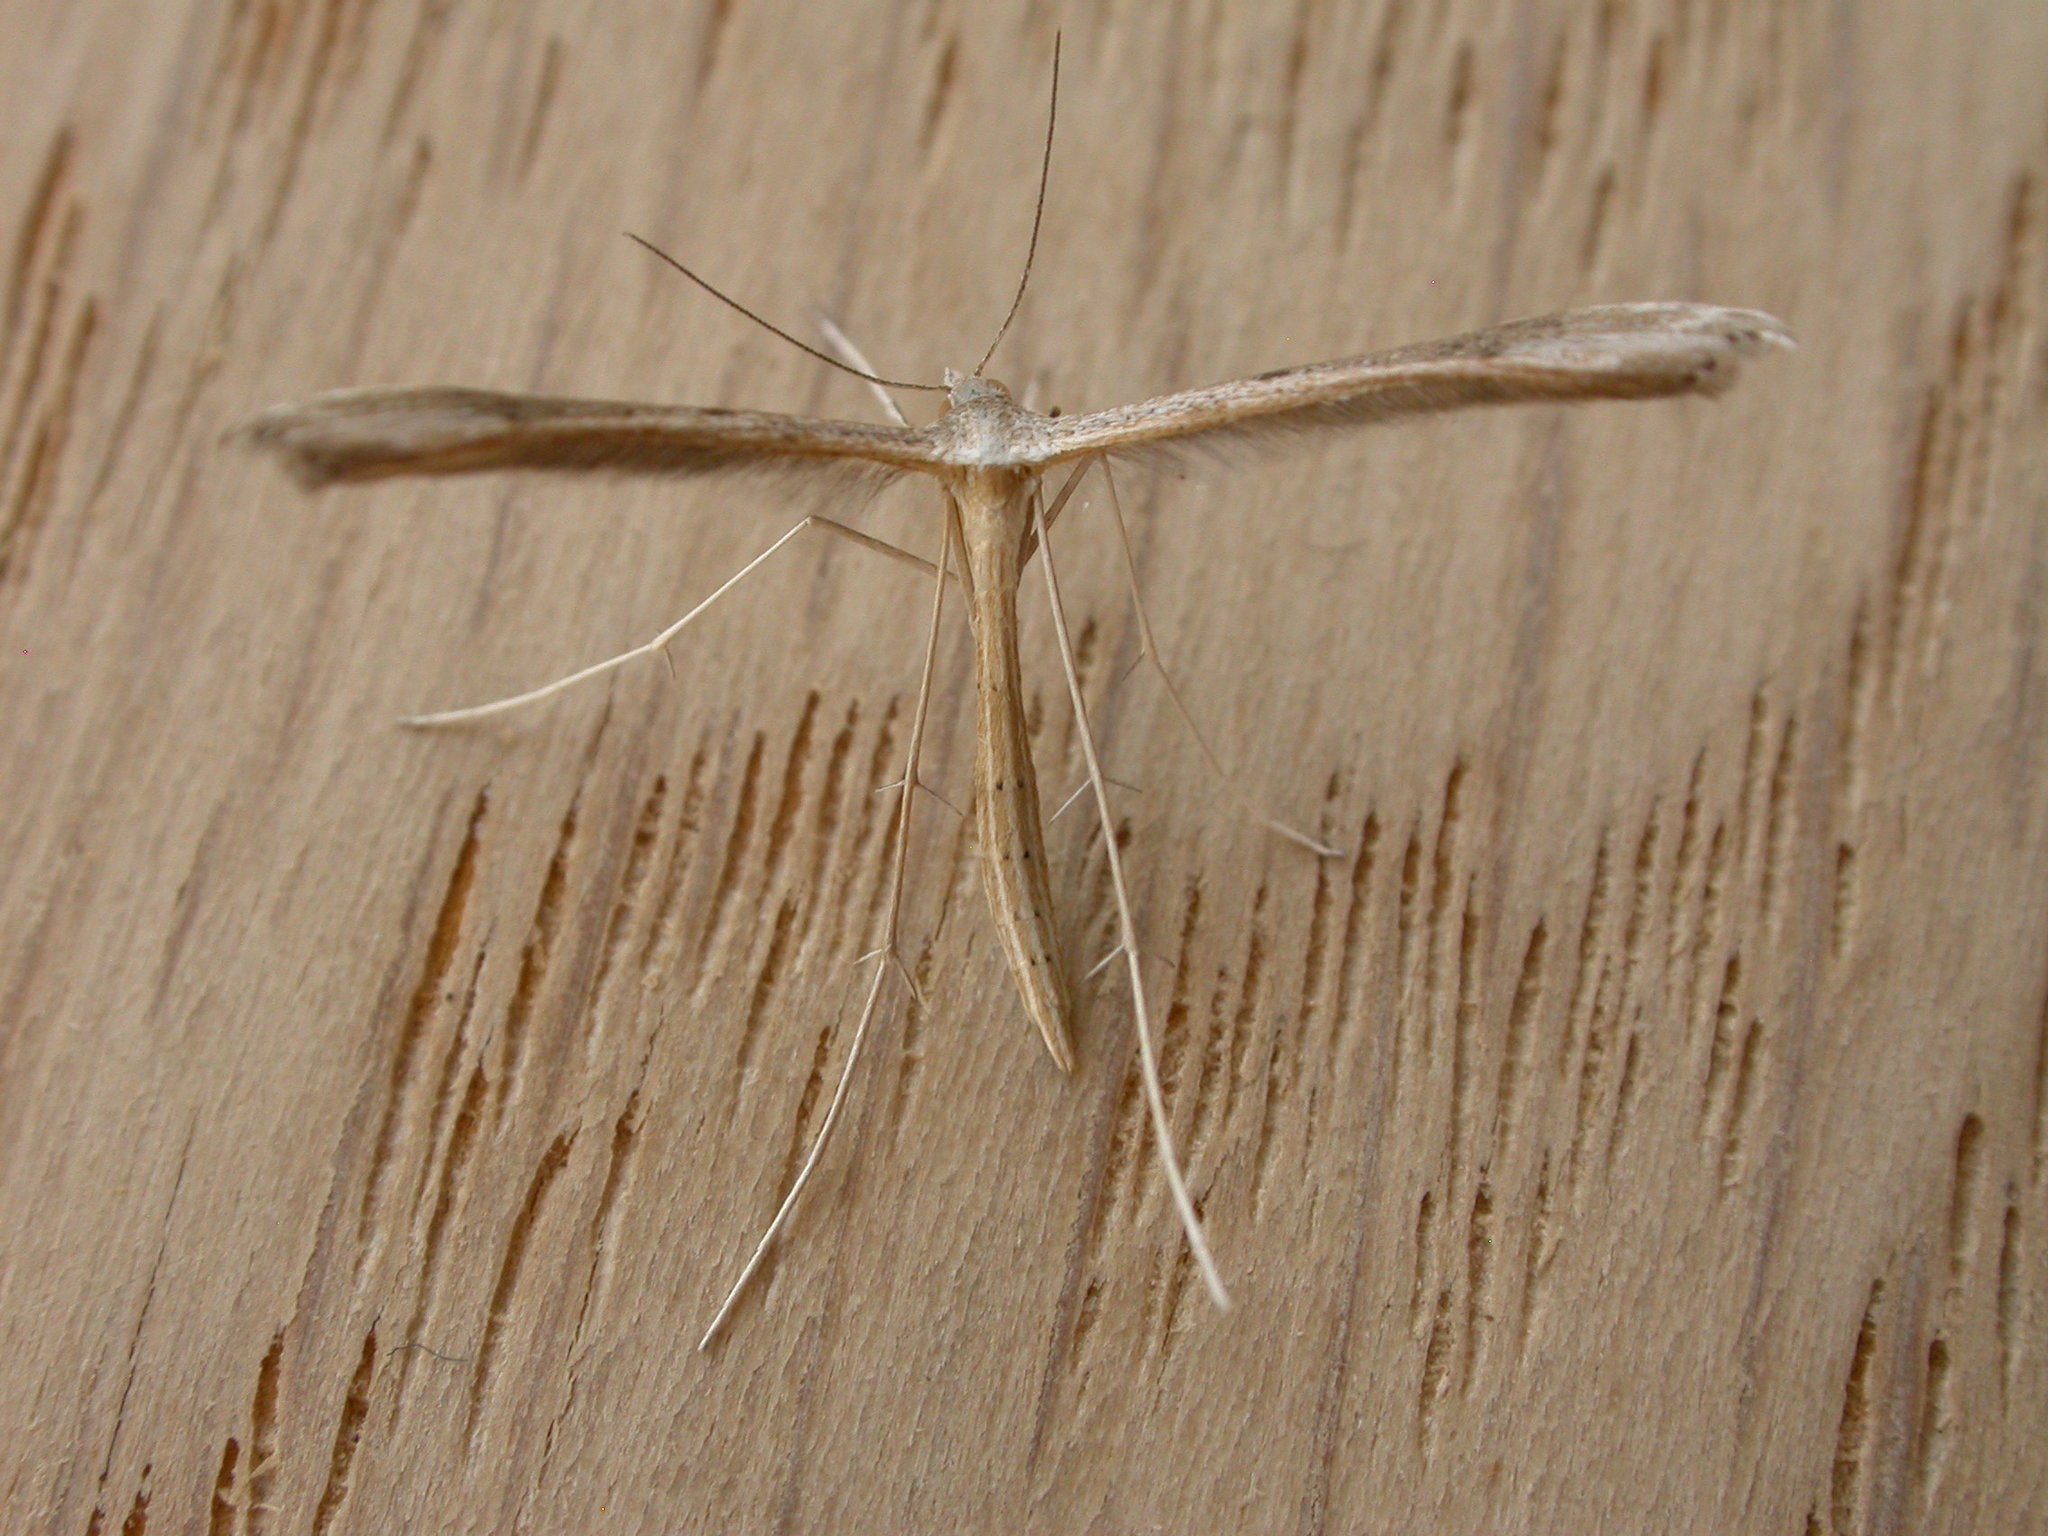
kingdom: Animalia
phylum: Arthropoda
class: Insecta
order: Lepidoptera
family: Pterophoridae
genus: Stenoptilia
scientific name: Stenoptilia zophodactylus
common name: Dowdy plume
